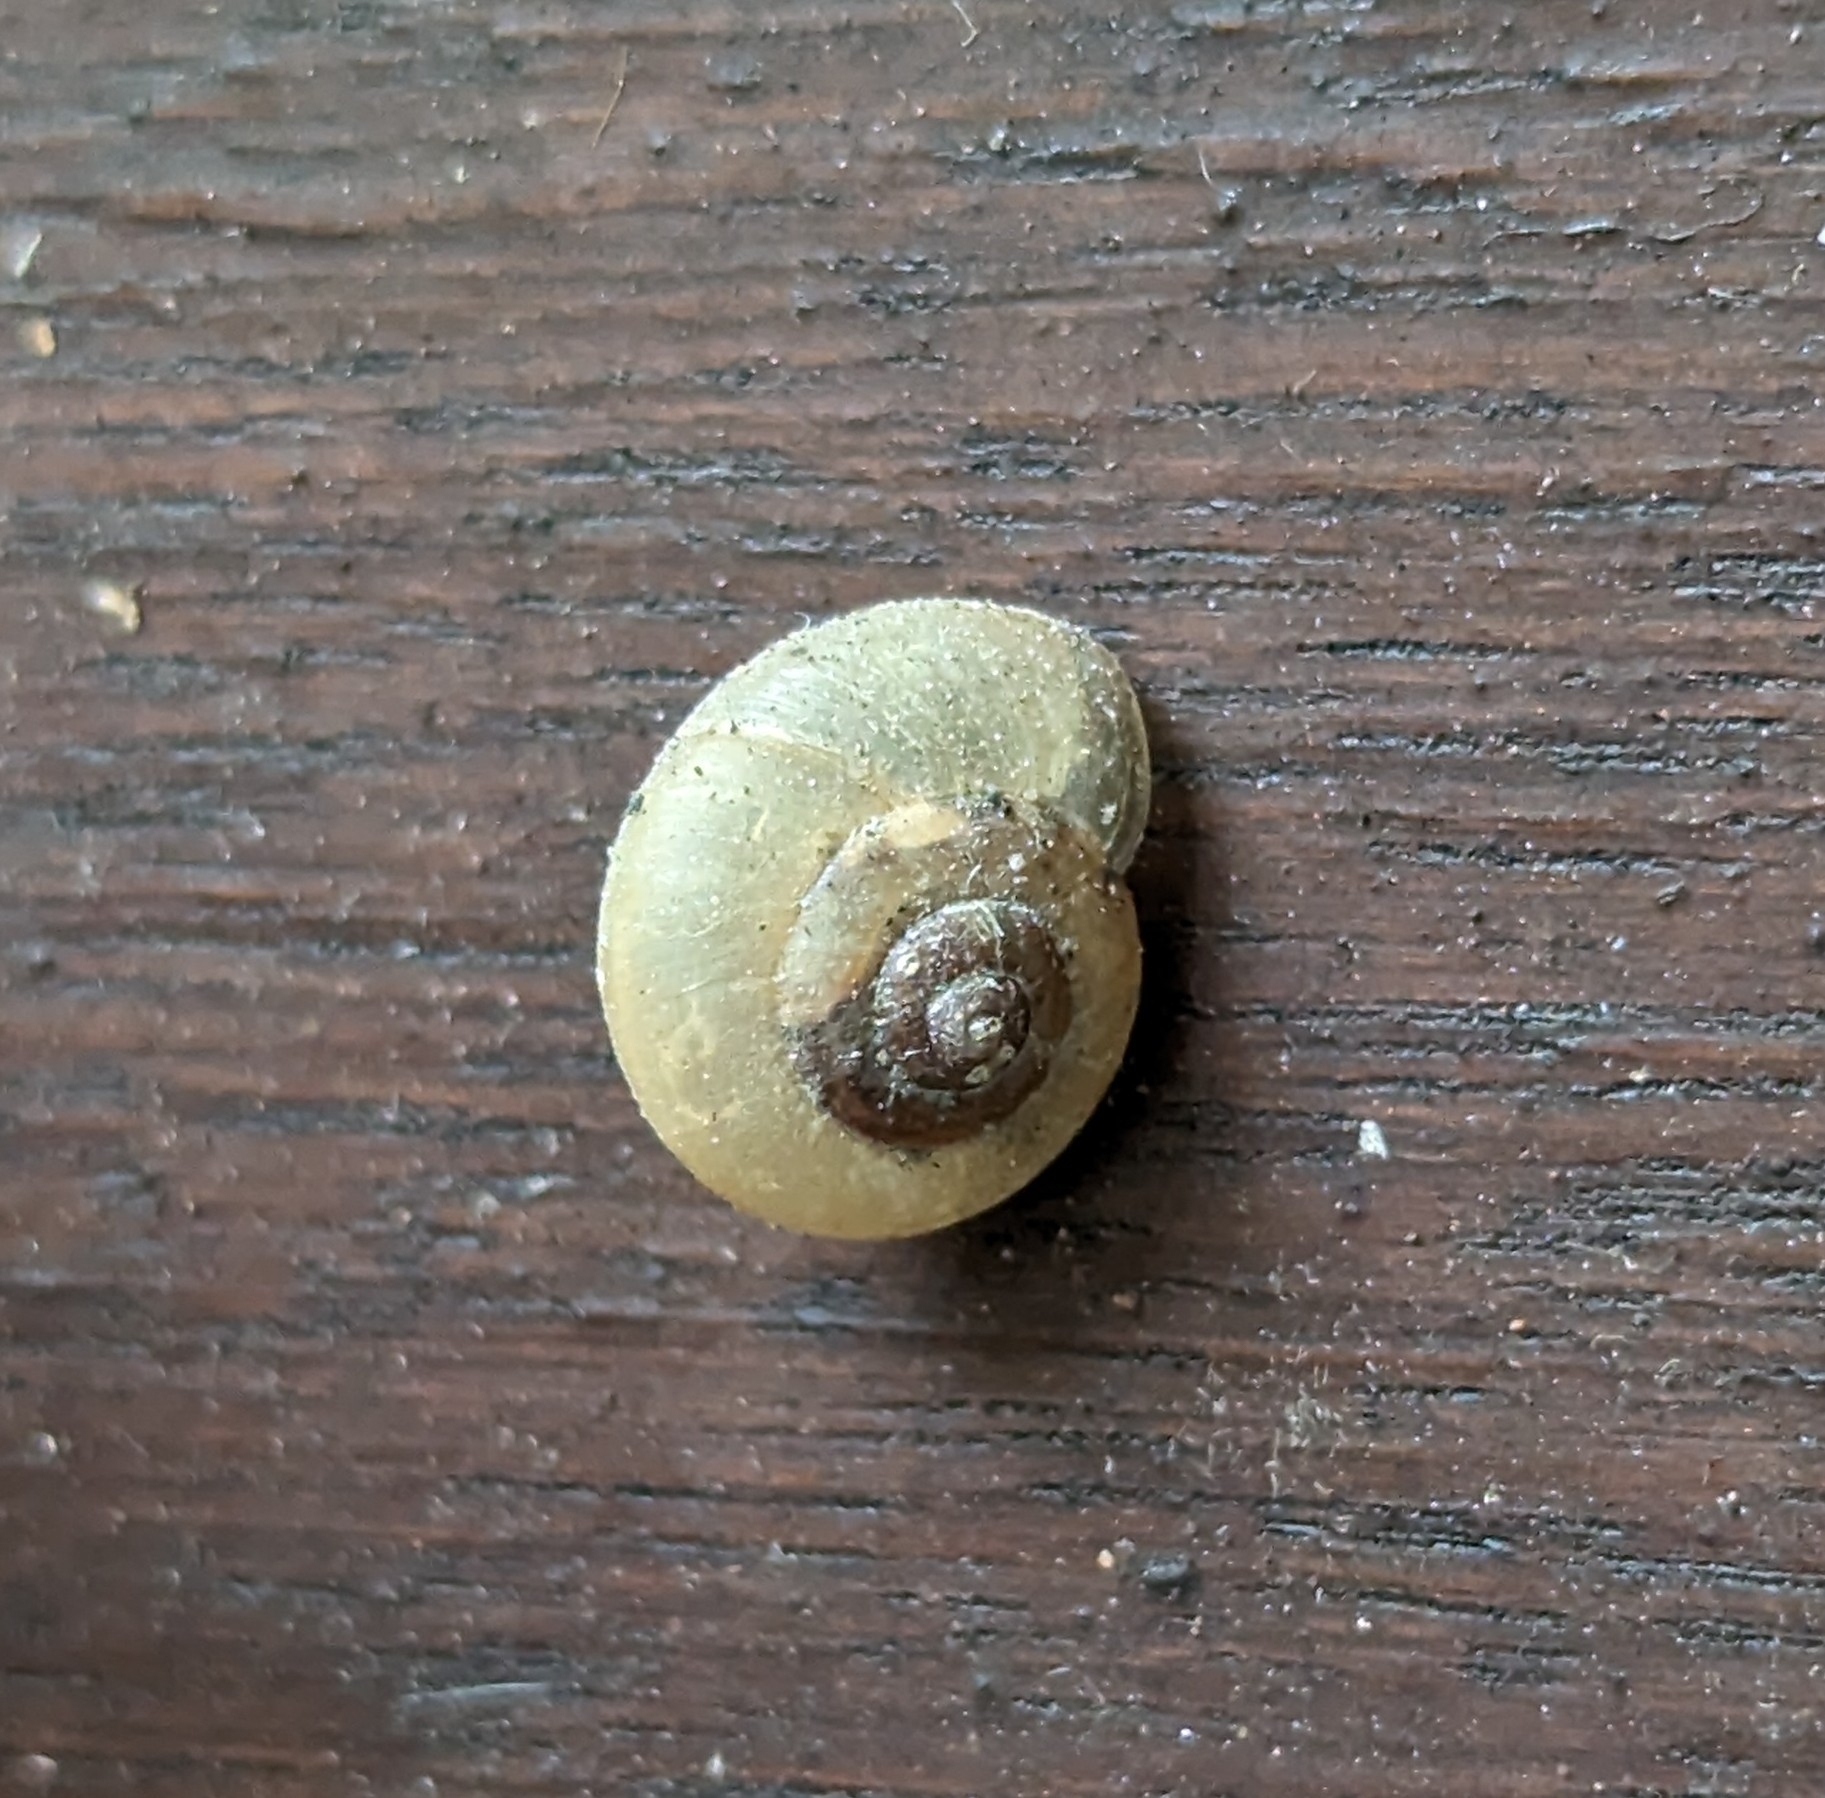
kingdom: Animalia
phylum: Mollusca
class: Gastropoda
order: Stylommatophora
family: Camaenidae
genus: Bradybaena
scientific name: Bradybaena similaris
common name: Asian trampsnail
